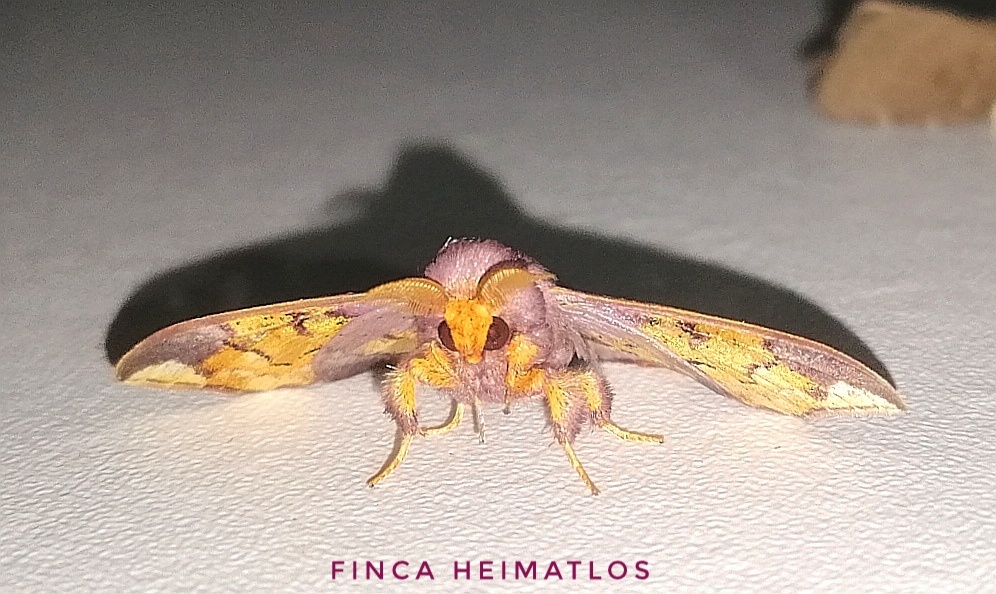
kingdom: Animalia
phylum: Arthropoda
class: Insecta
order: Lepidoptera
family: Mimallonidae
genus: Arianula
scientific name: Arianula haxairei
